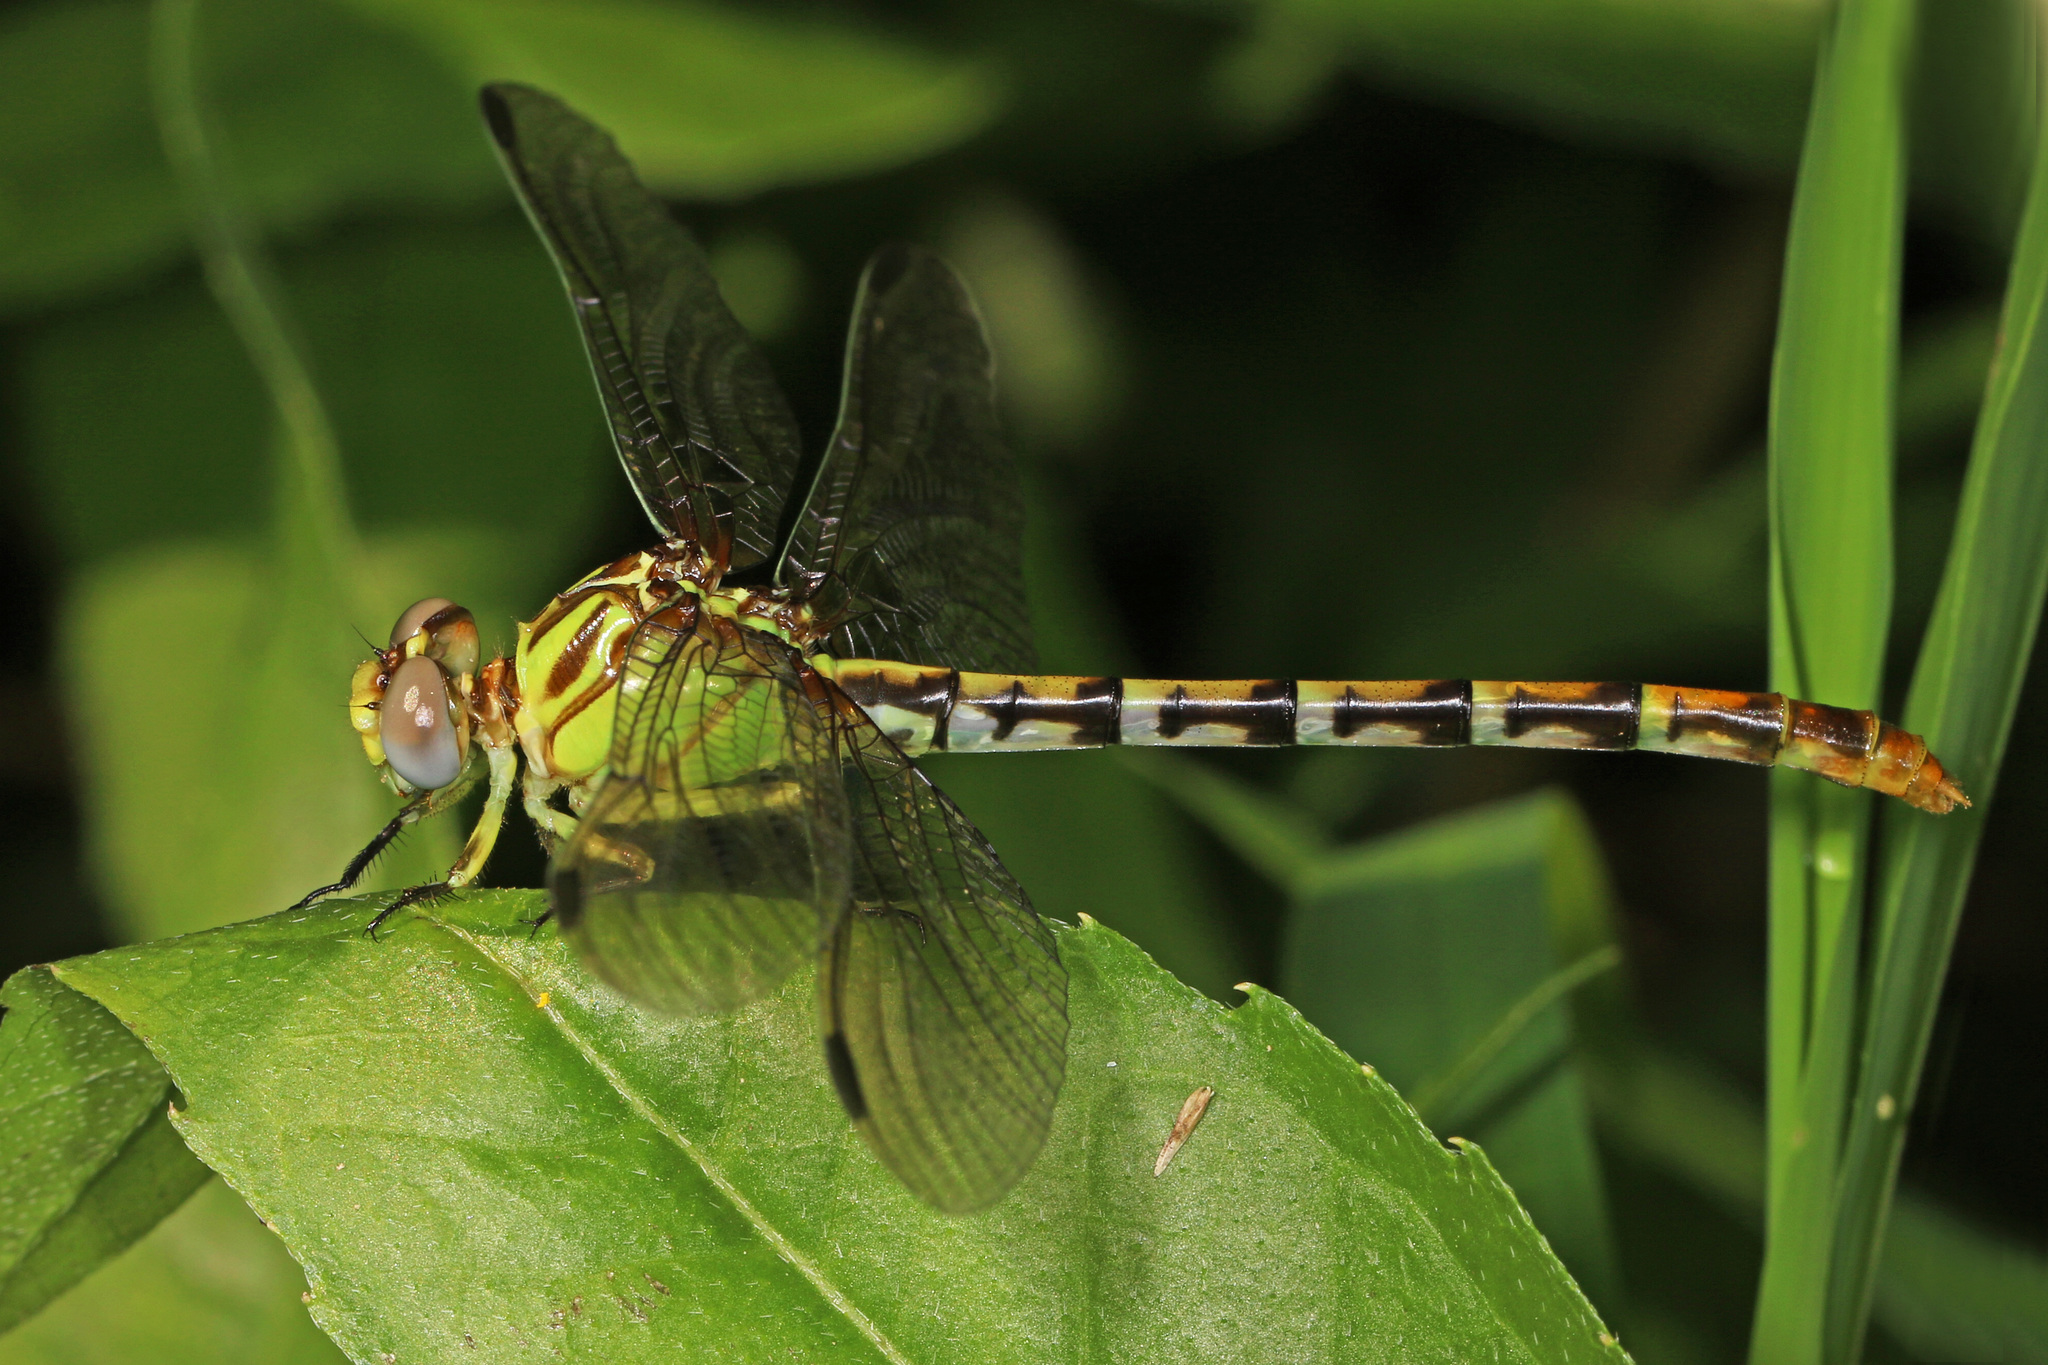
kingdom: Animalia
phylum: Arthropoda
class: Insecta
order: Odonata
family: Gomphidae
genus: Erpetogomphus
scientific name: Erpetogomphus designatus
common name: Eastern ringtail
